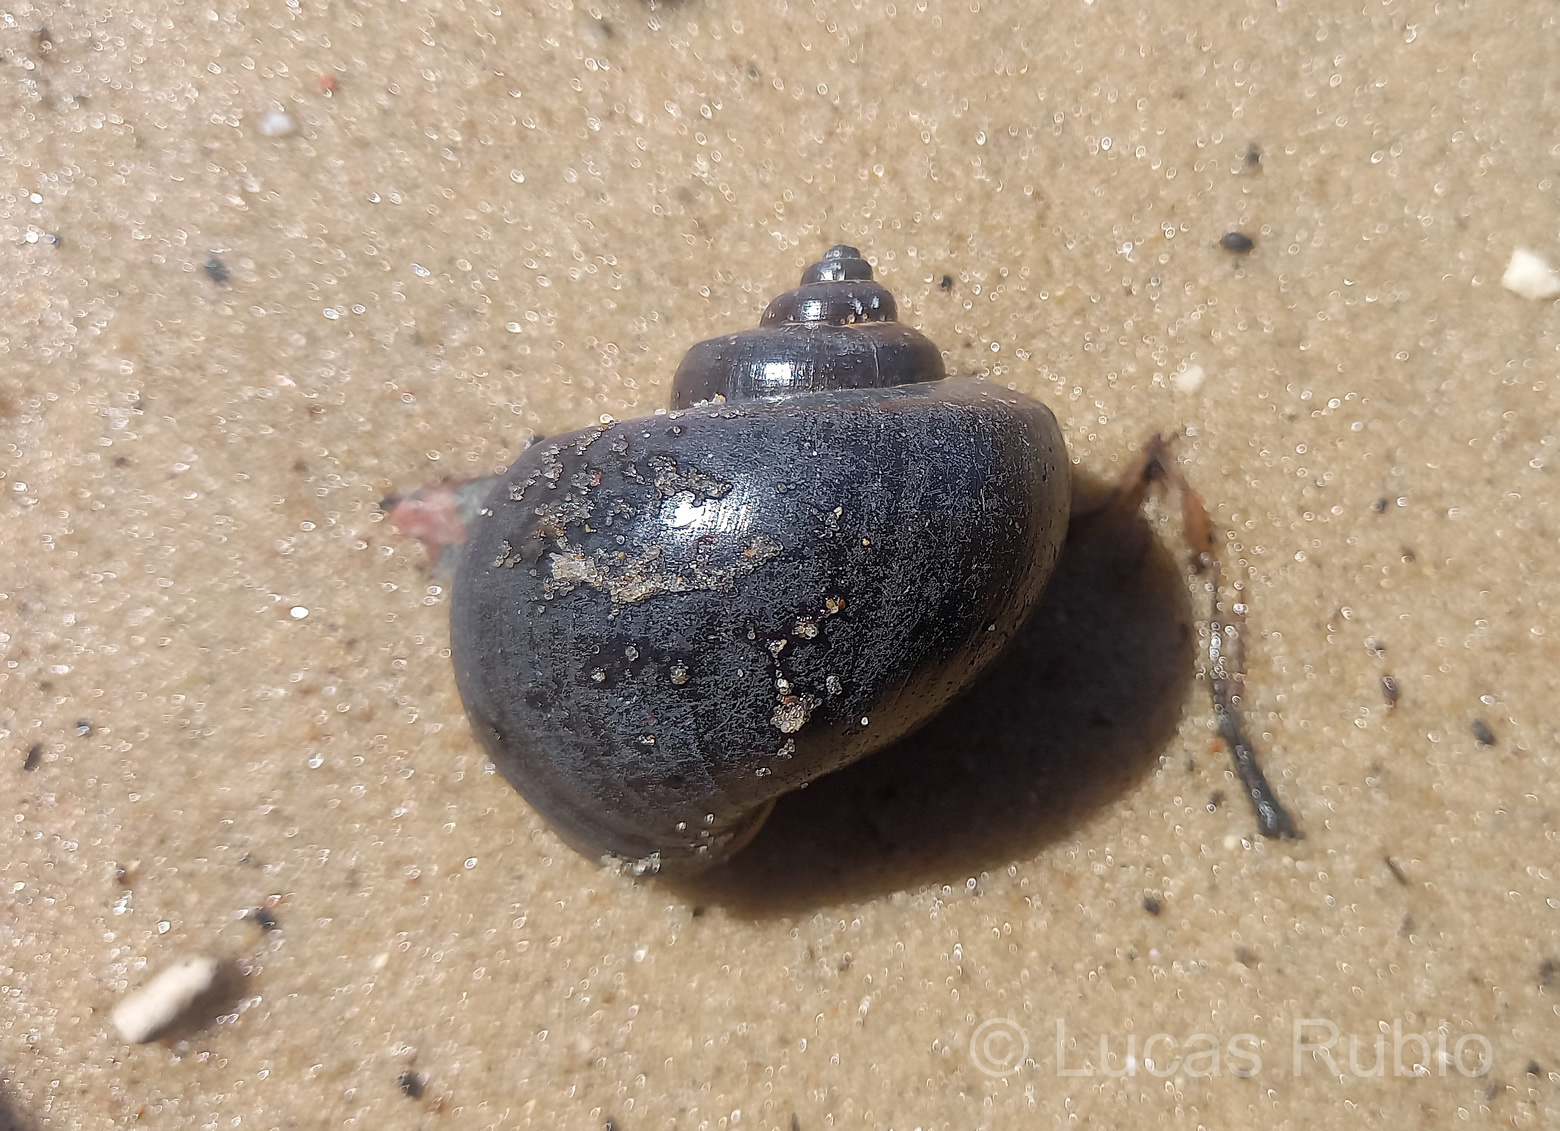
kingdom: Animalia
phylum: Mollusca
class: Gastropoda
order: Architaenioglossa
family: Ampullariidae
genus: Pomacea
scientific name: Pomacea scalaris
